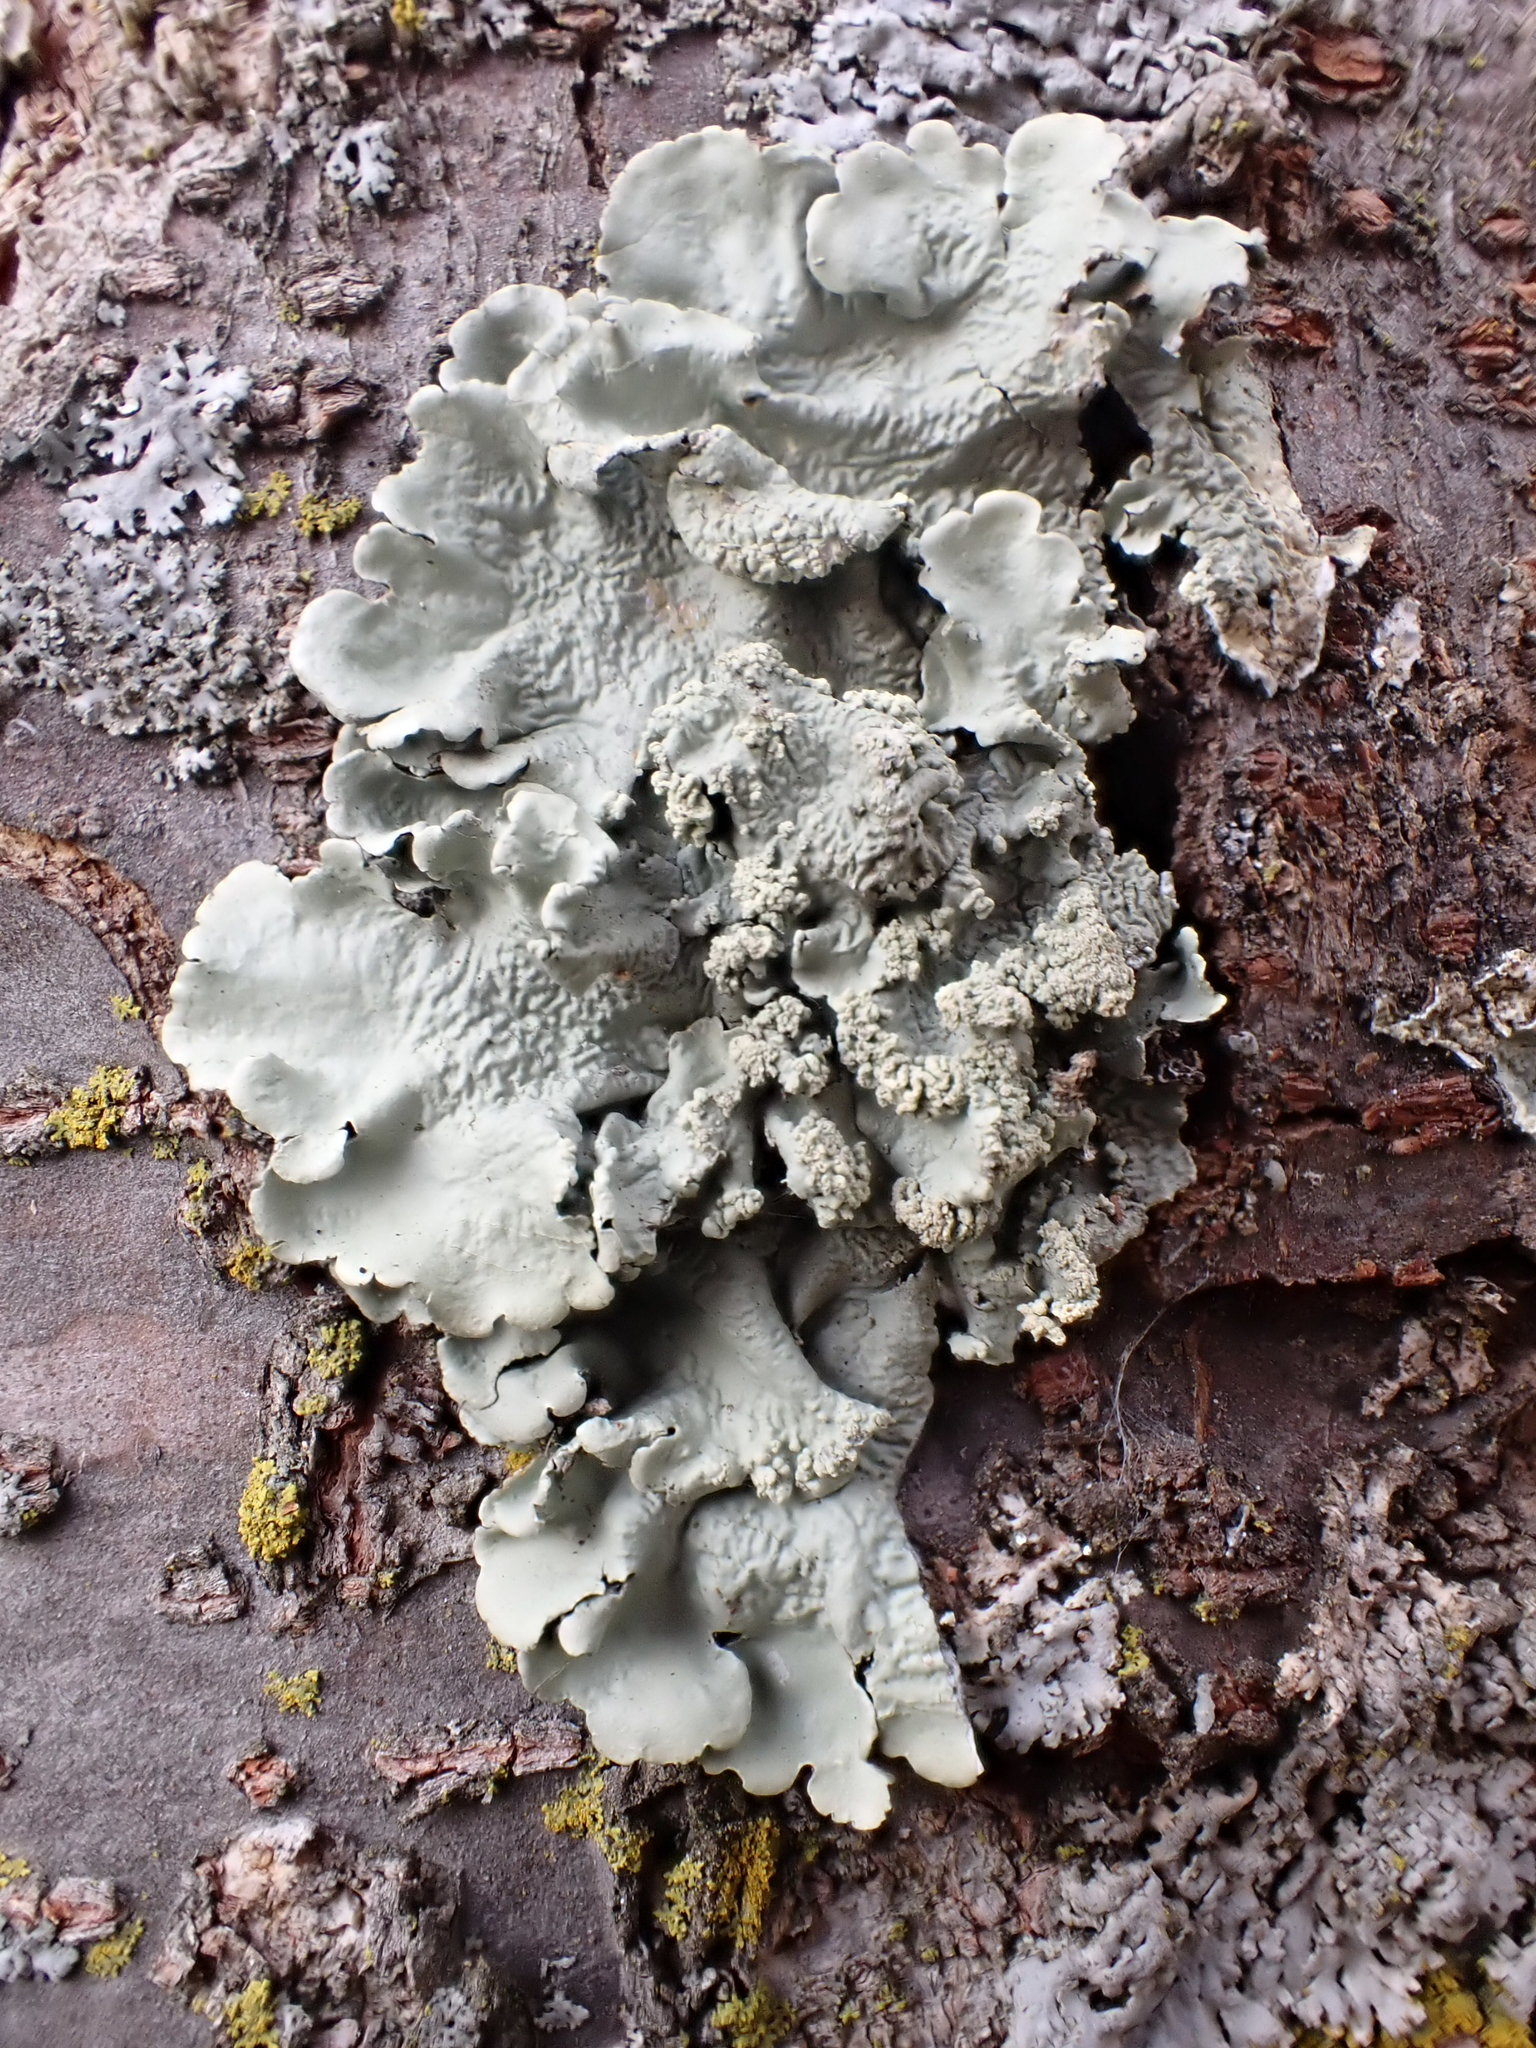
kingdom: Fungi
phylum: Ascomycota
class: Lecanoromycetes
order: Lecanorales
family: Parmeliaceae
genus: Flavoparmelia
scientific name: Flavoparmelia caperata
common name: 40-mile per hour lichen
